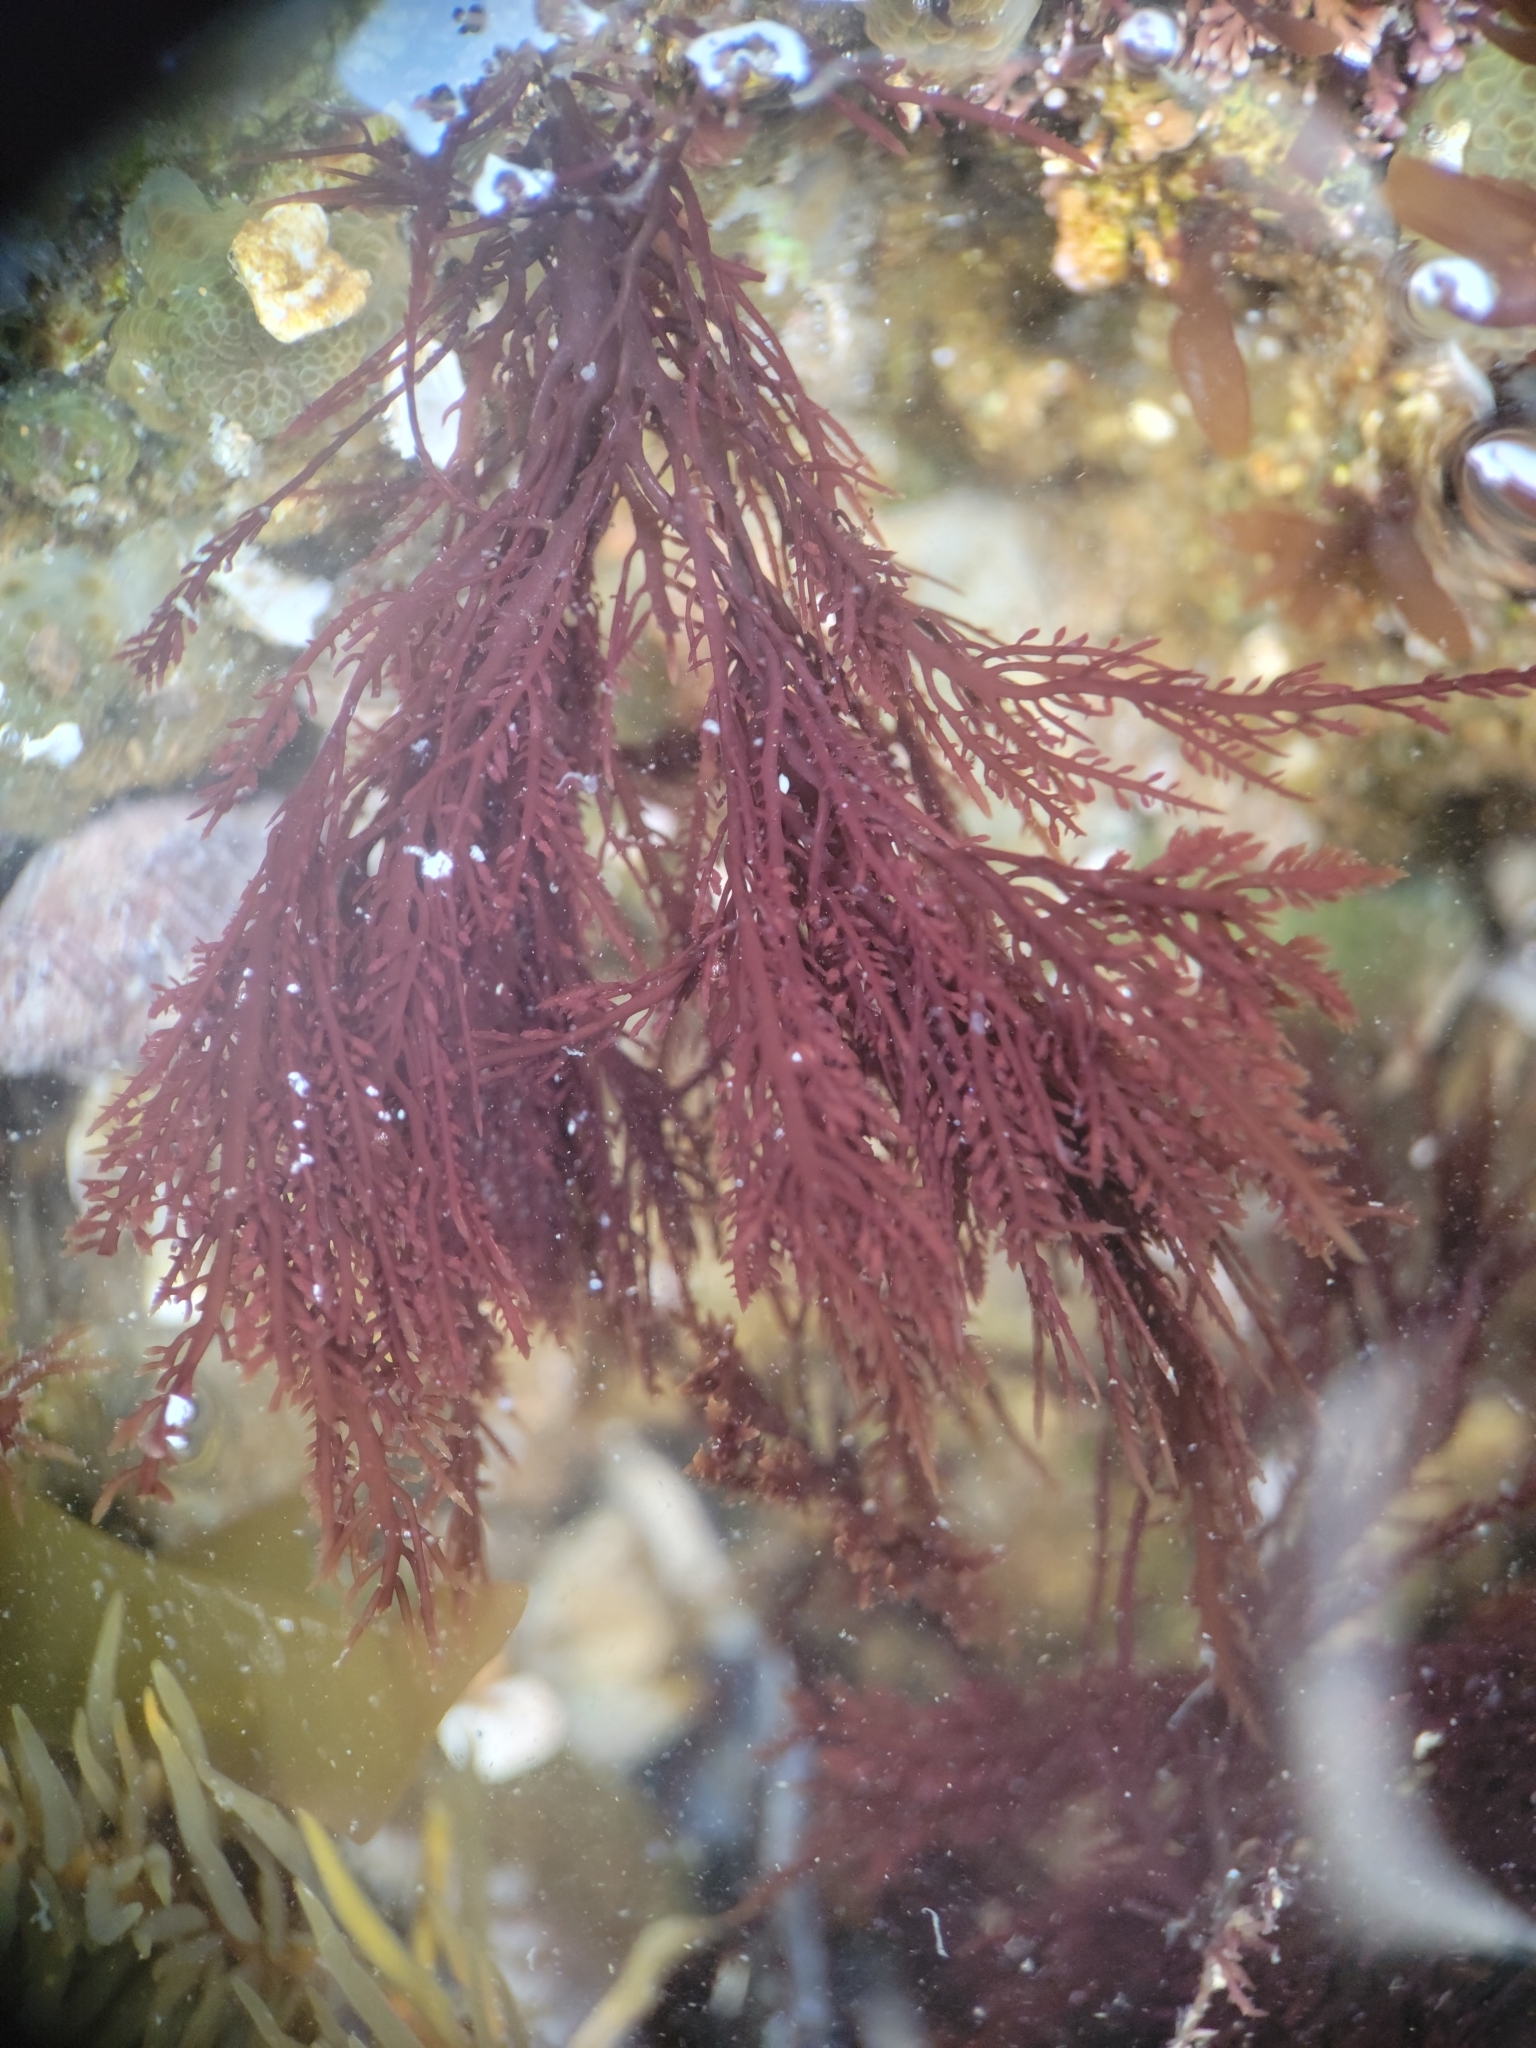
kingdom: Plantae
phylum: Rhodophyta
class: Florideophyceae
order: Gelidiales
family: Gelidiaceae
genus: Gelidium
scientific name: Gelidium coulteri
